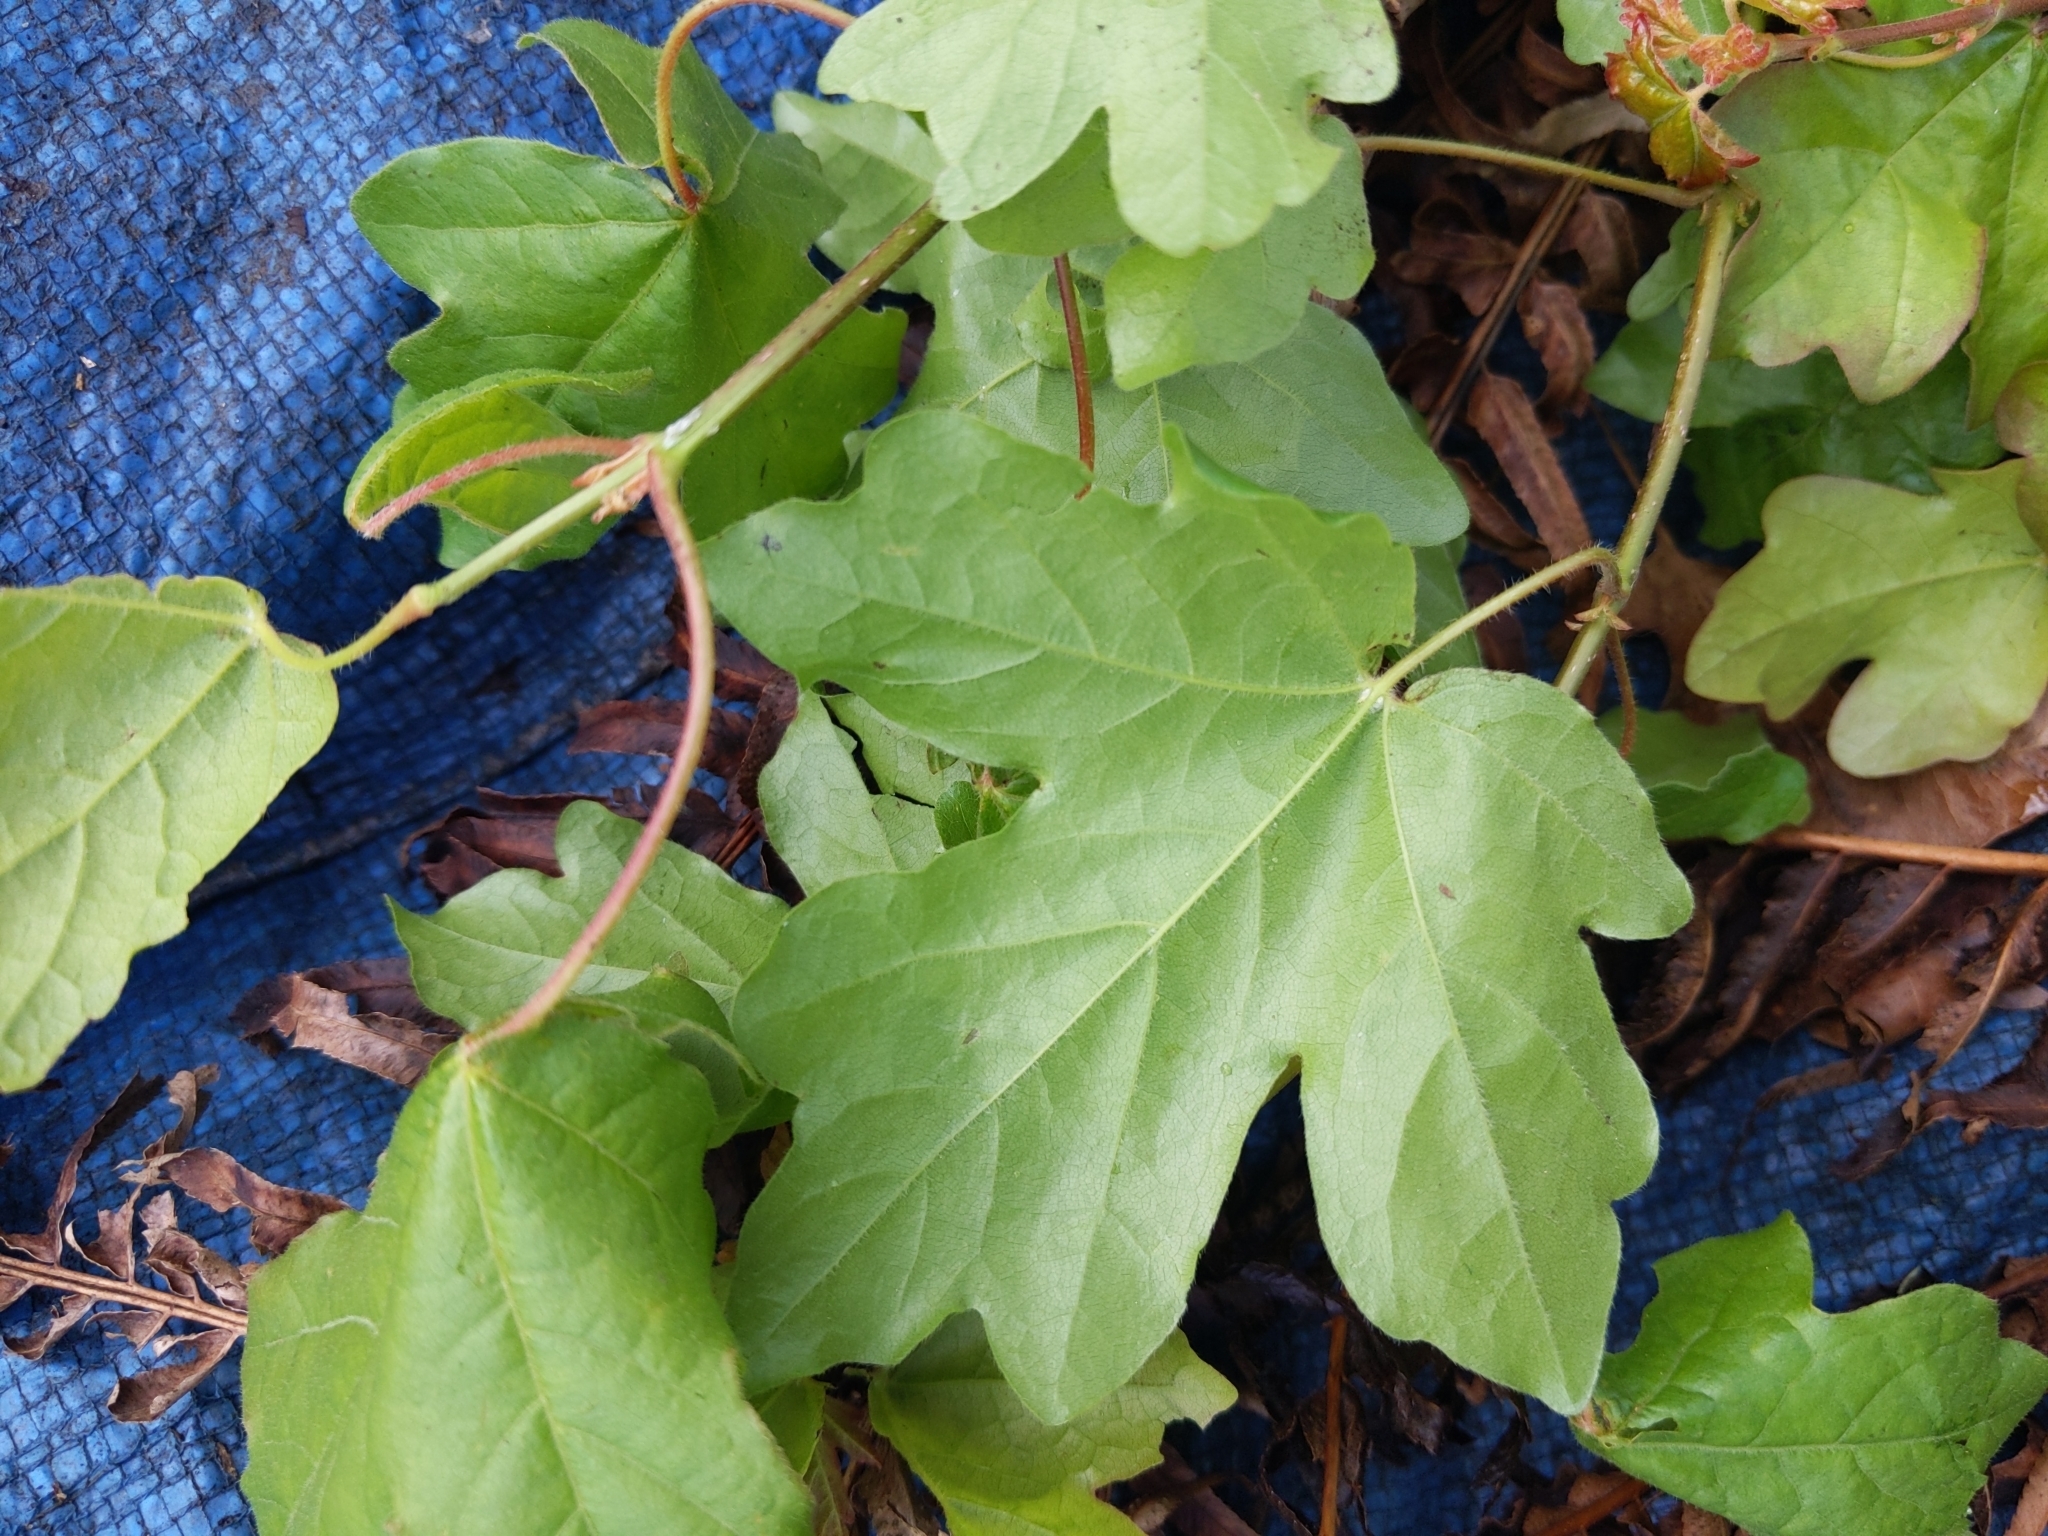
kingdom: Plantae
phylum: Tracheophyta
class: Magnoliopsida
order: Sapindales
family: Sapindaceae
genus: Acer
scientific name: Acer campestre
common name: Field maple
